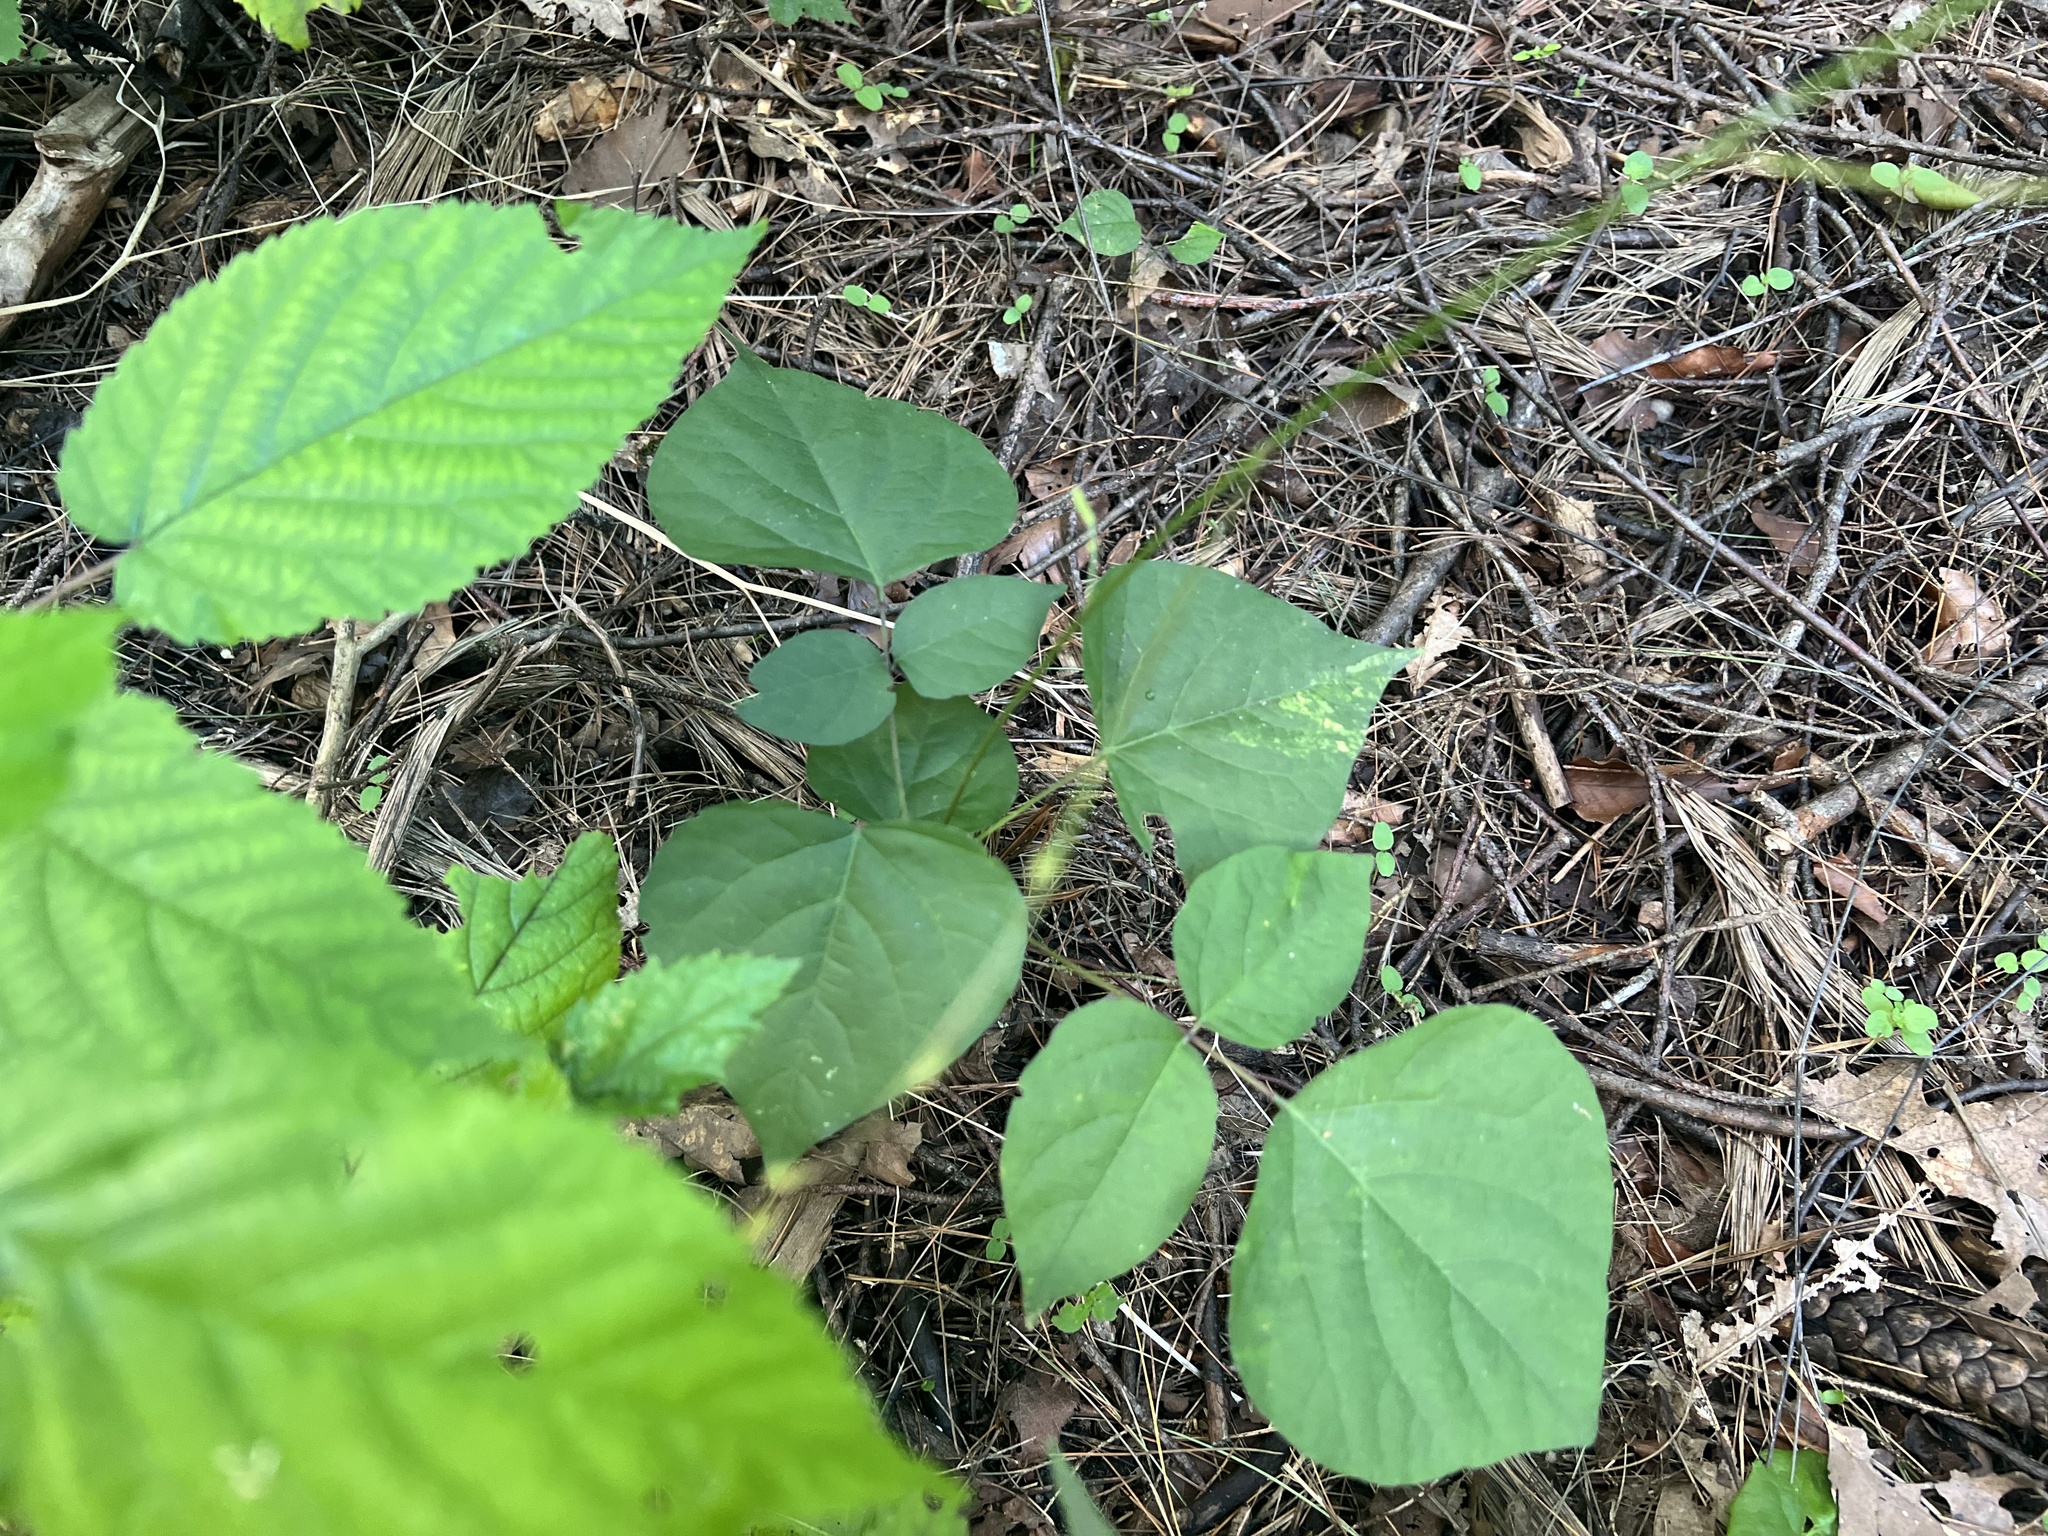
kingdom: Plantae
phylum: Tracheophyta
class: Magnoliopsida
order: Fabales
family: Fabaceae
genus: Hylodesmum
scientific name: Hylodesmum glutinosum
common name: Clustered-leaved tick-trefoil
